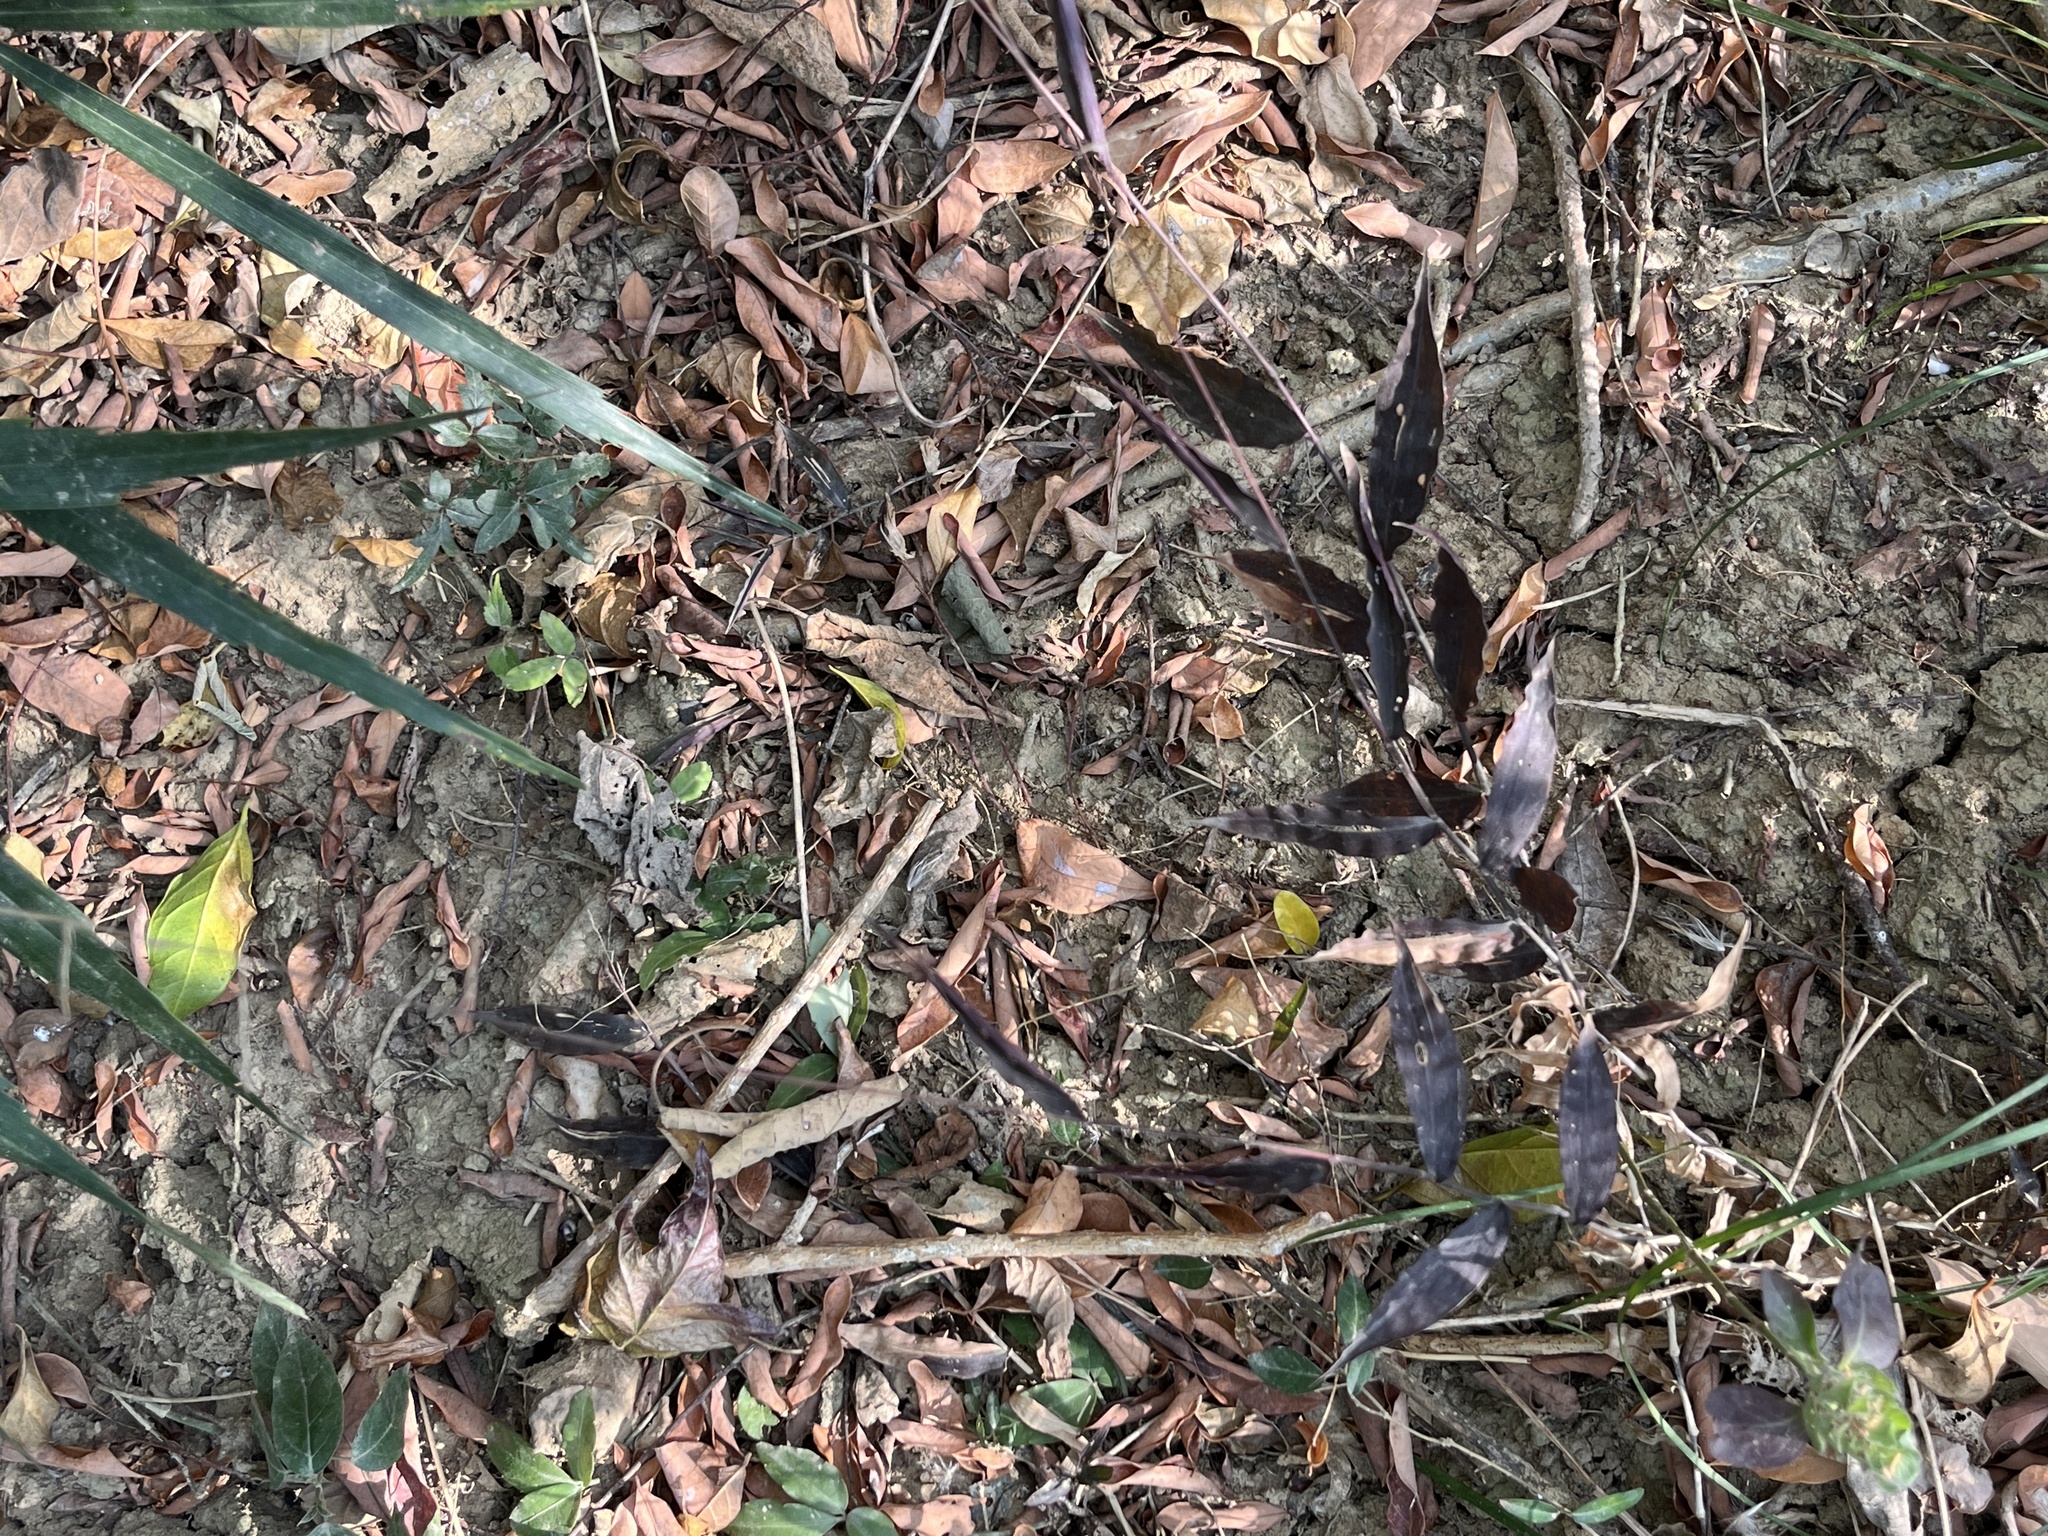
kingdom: Plantae
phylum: Tracheophyta
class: Liliopsida
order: Poales
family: Poaceae
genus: Oplismenus
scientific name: Oplismenus compositus
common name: Running mountain grass
